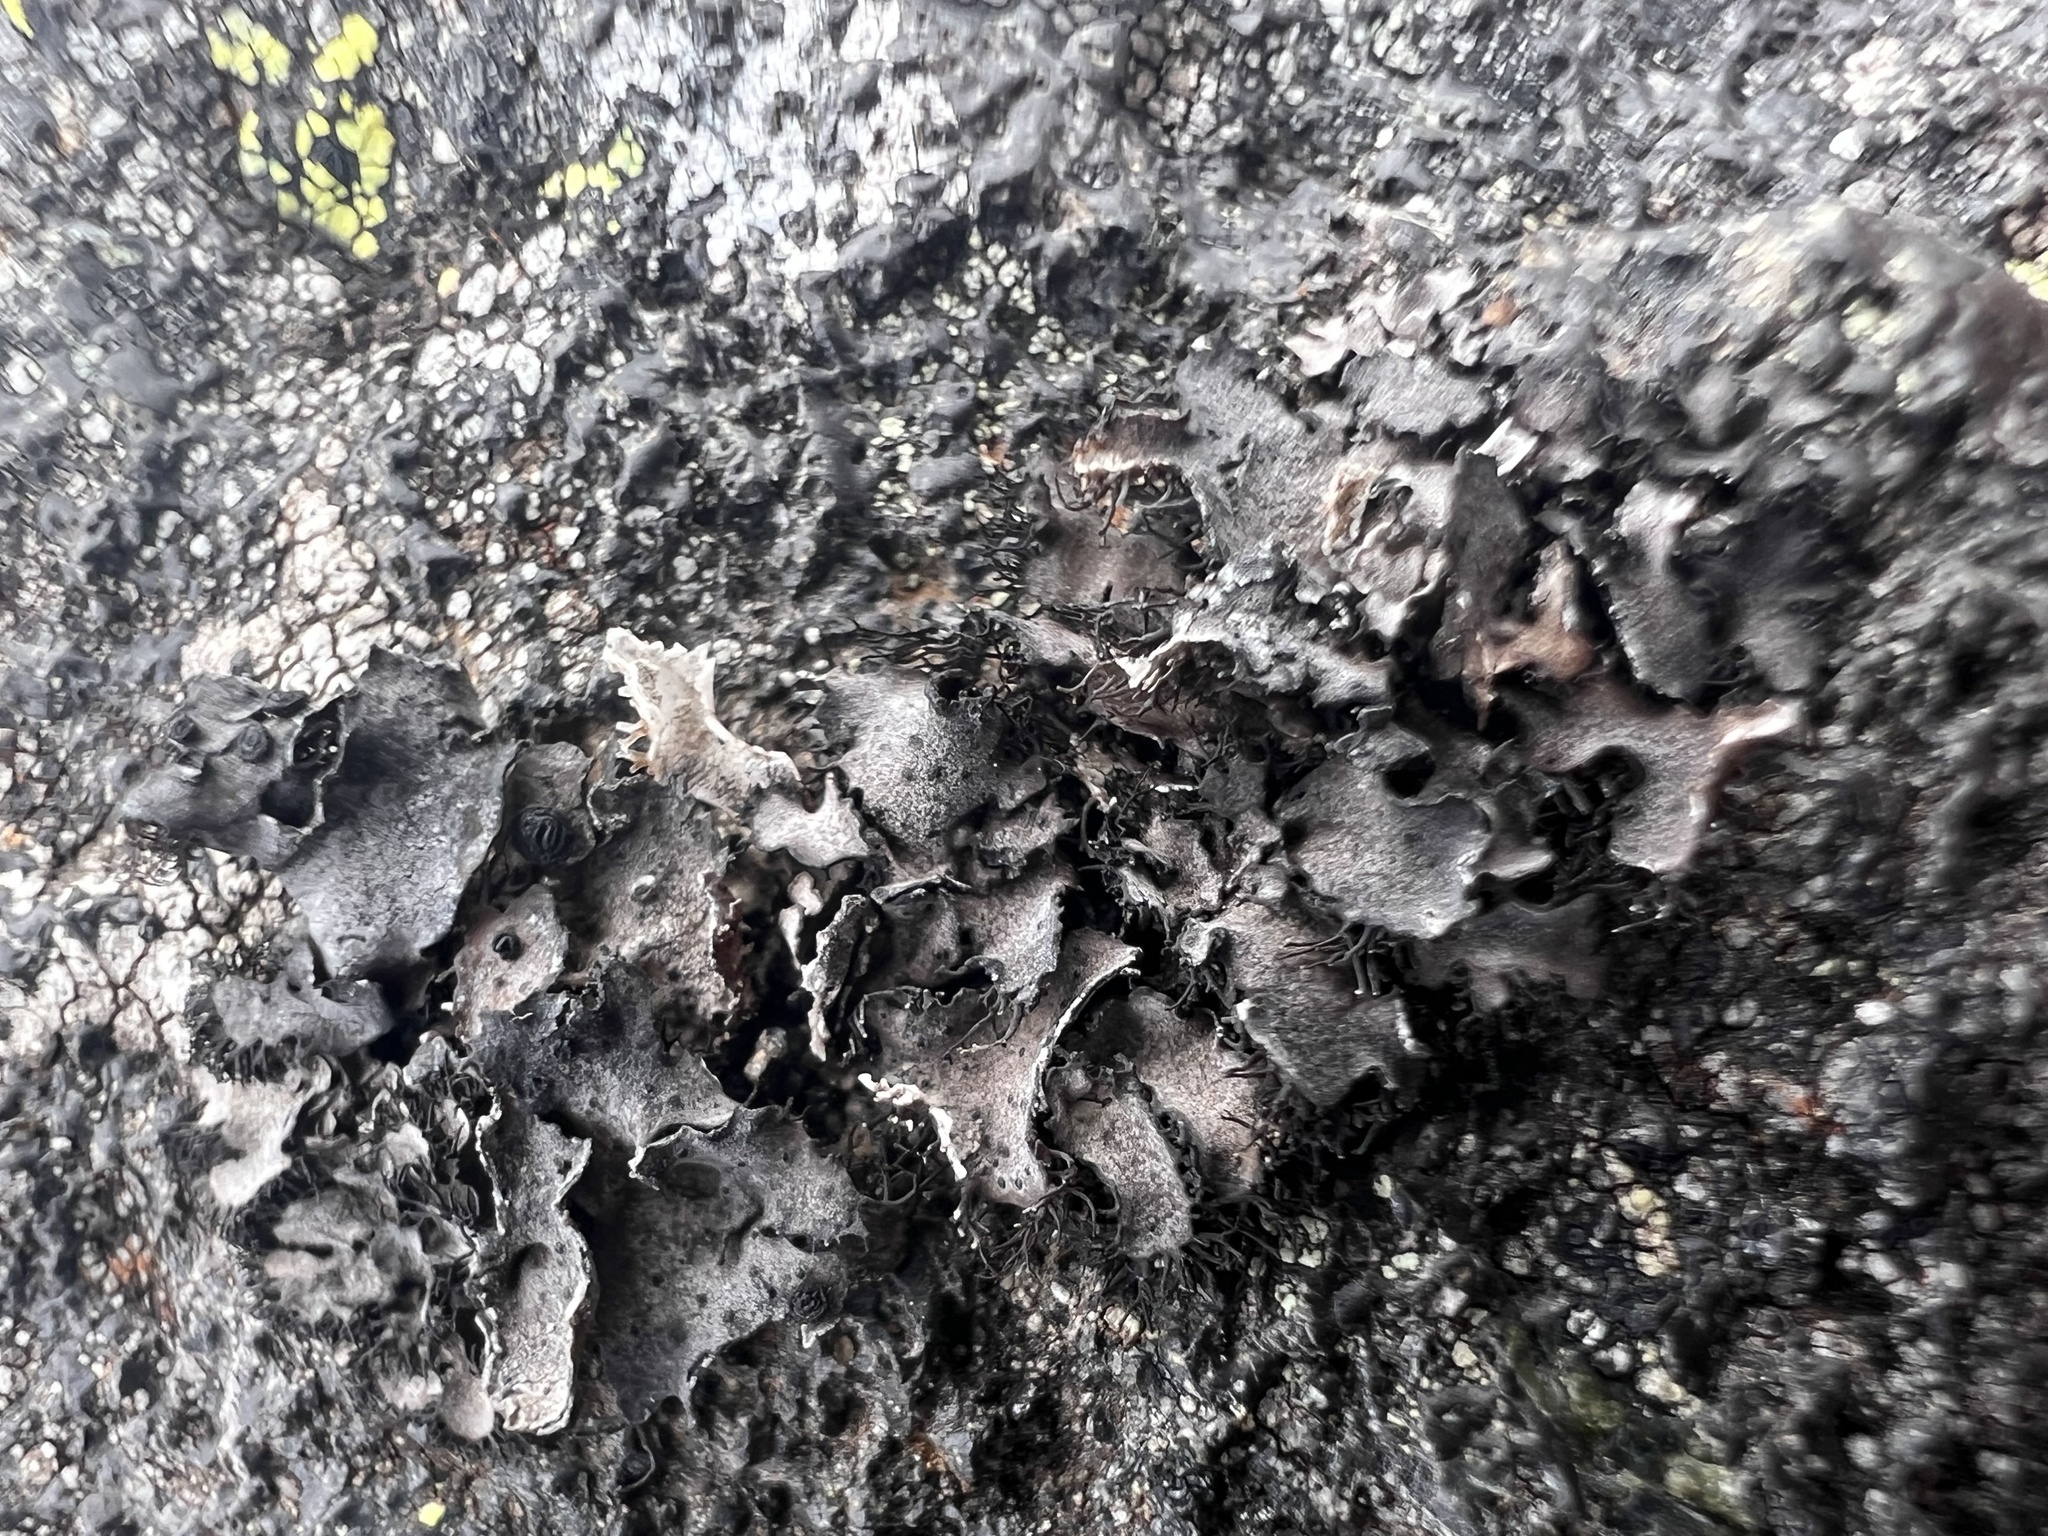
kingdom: Fungi
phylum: Ascomycota
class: Lecanoromycetes
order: Umbilicariales
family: Umbilicariaceae
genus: Umbilicaria
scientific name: Umbilicaria cylindrica
